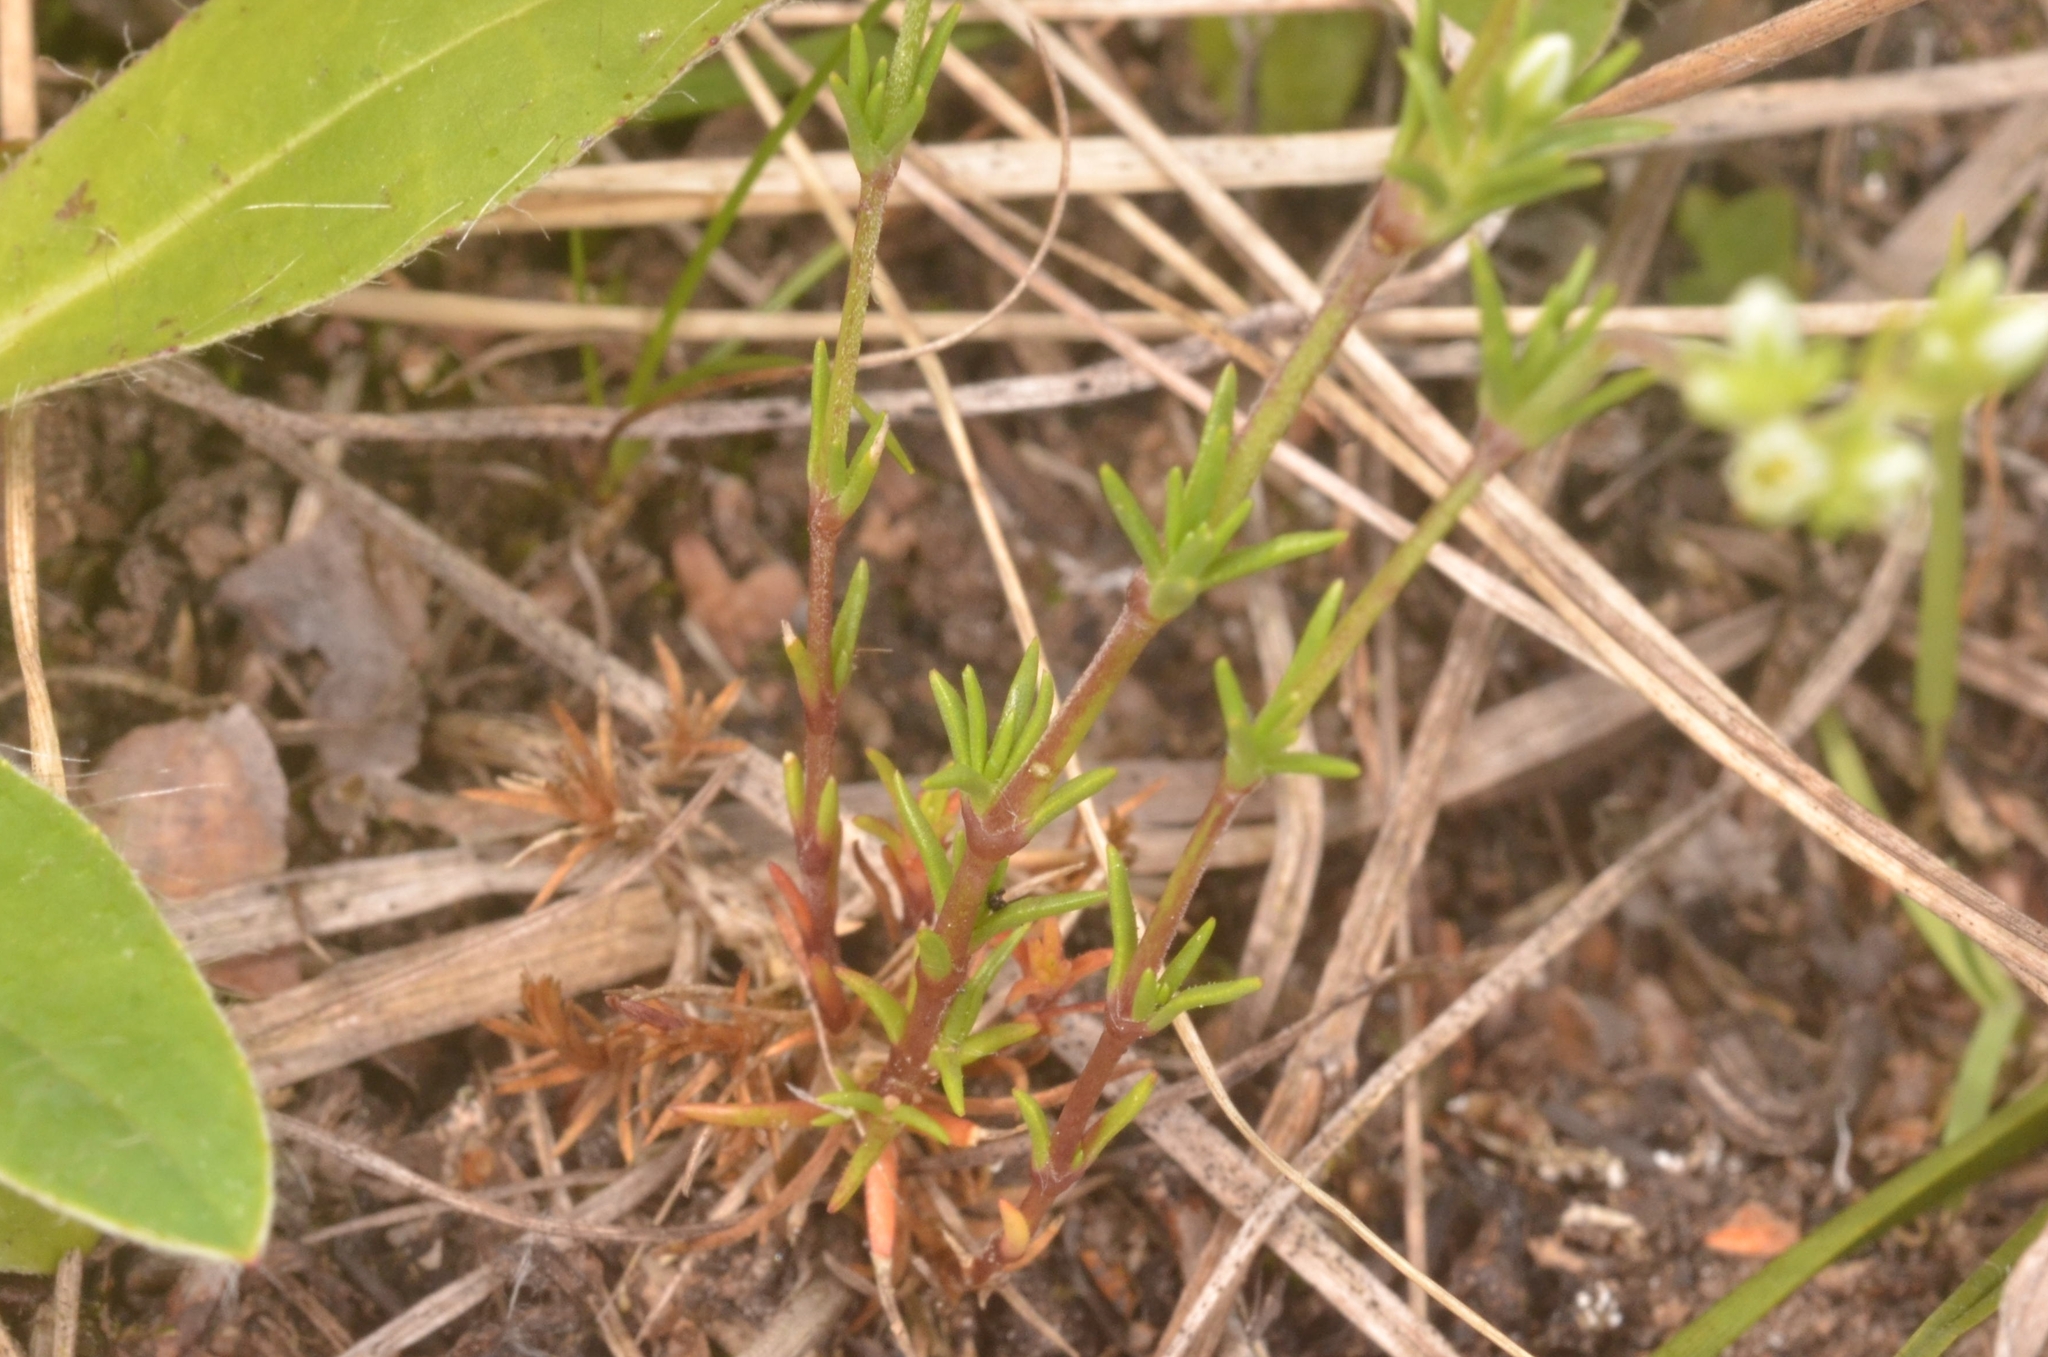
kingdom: Plantae
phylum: Tracheophyta
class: Magnoliopsida
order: Caryophyllales
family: Caryophyllaceae
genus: Scleranthus
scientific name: Scleranthus perennis
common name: Perennial knawel
